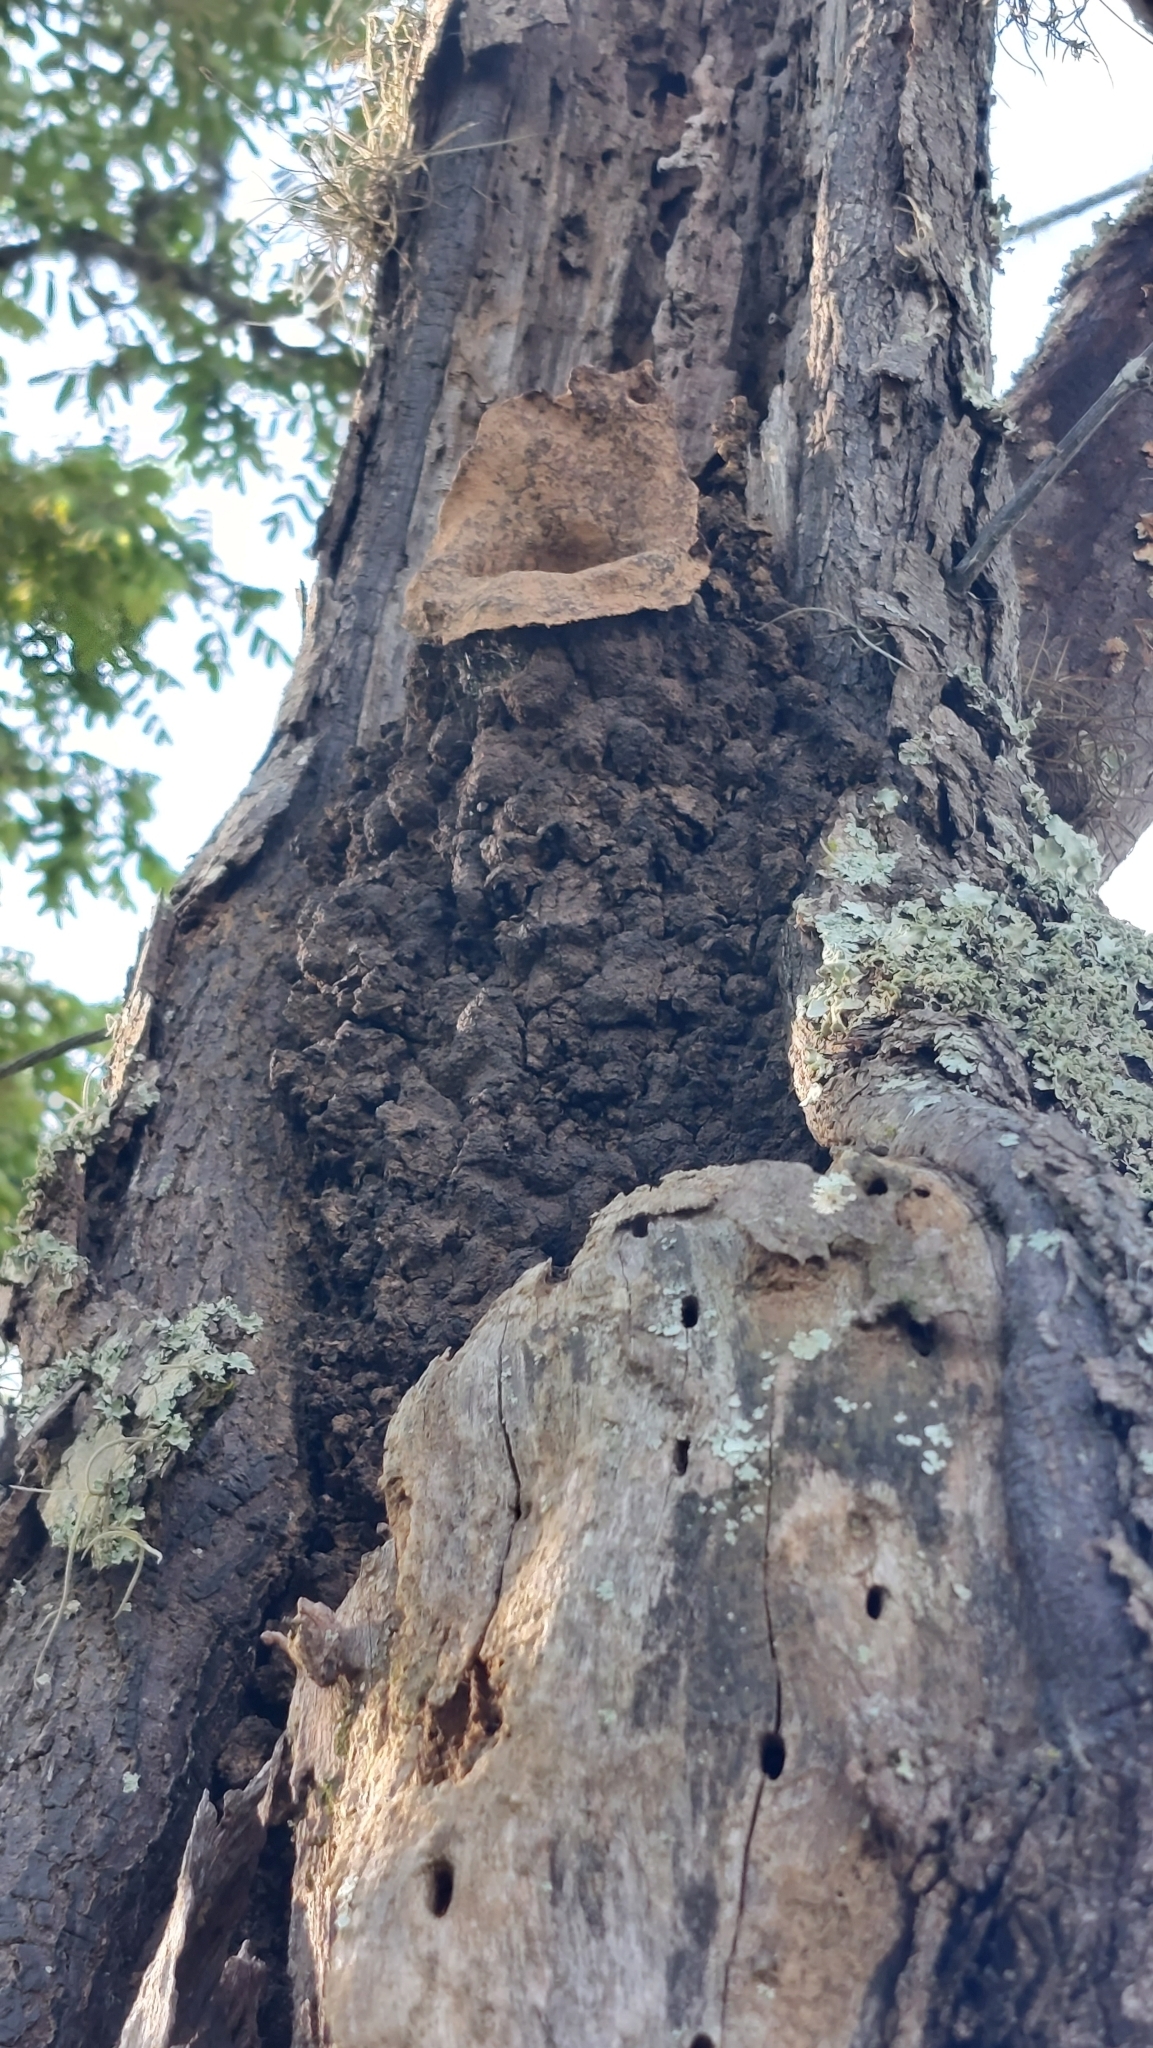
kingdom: Animalia
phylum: Arthropoda
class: Insecta
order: Hymenoptera
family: Apidae
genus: Partamona
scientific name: Partamona helleri
